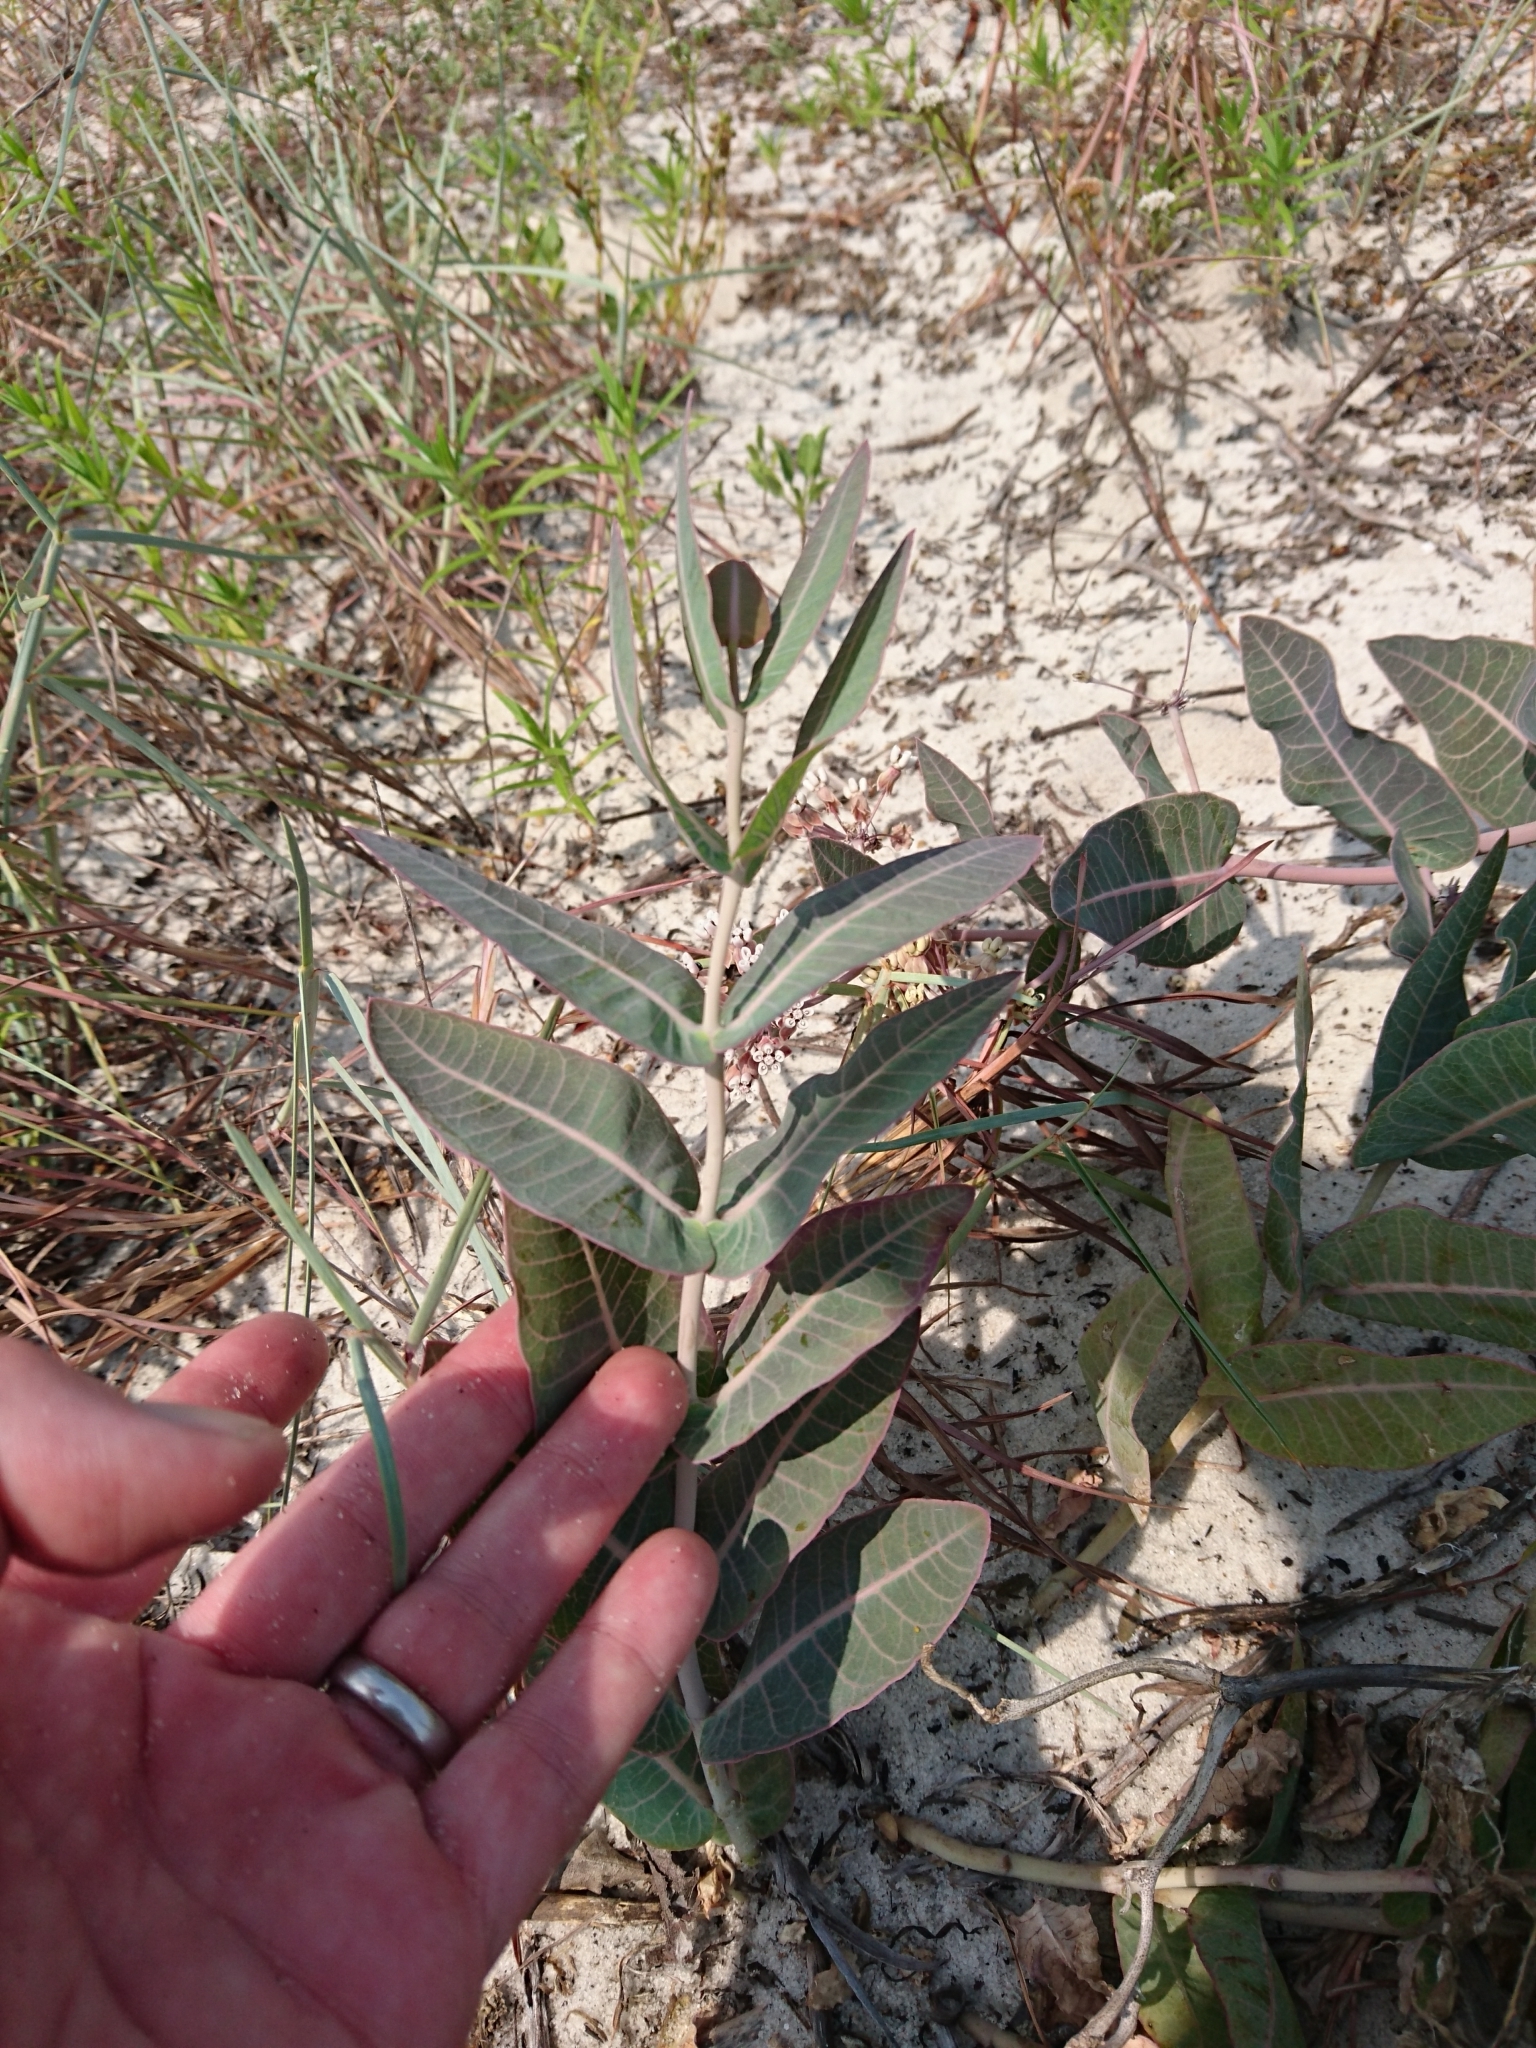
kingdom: Plantae
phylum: Tracheophyta
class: Magnoliopsida
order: Gentianales
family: Apocynaceae
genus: Asclepias
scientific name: Asclepias humistrata
